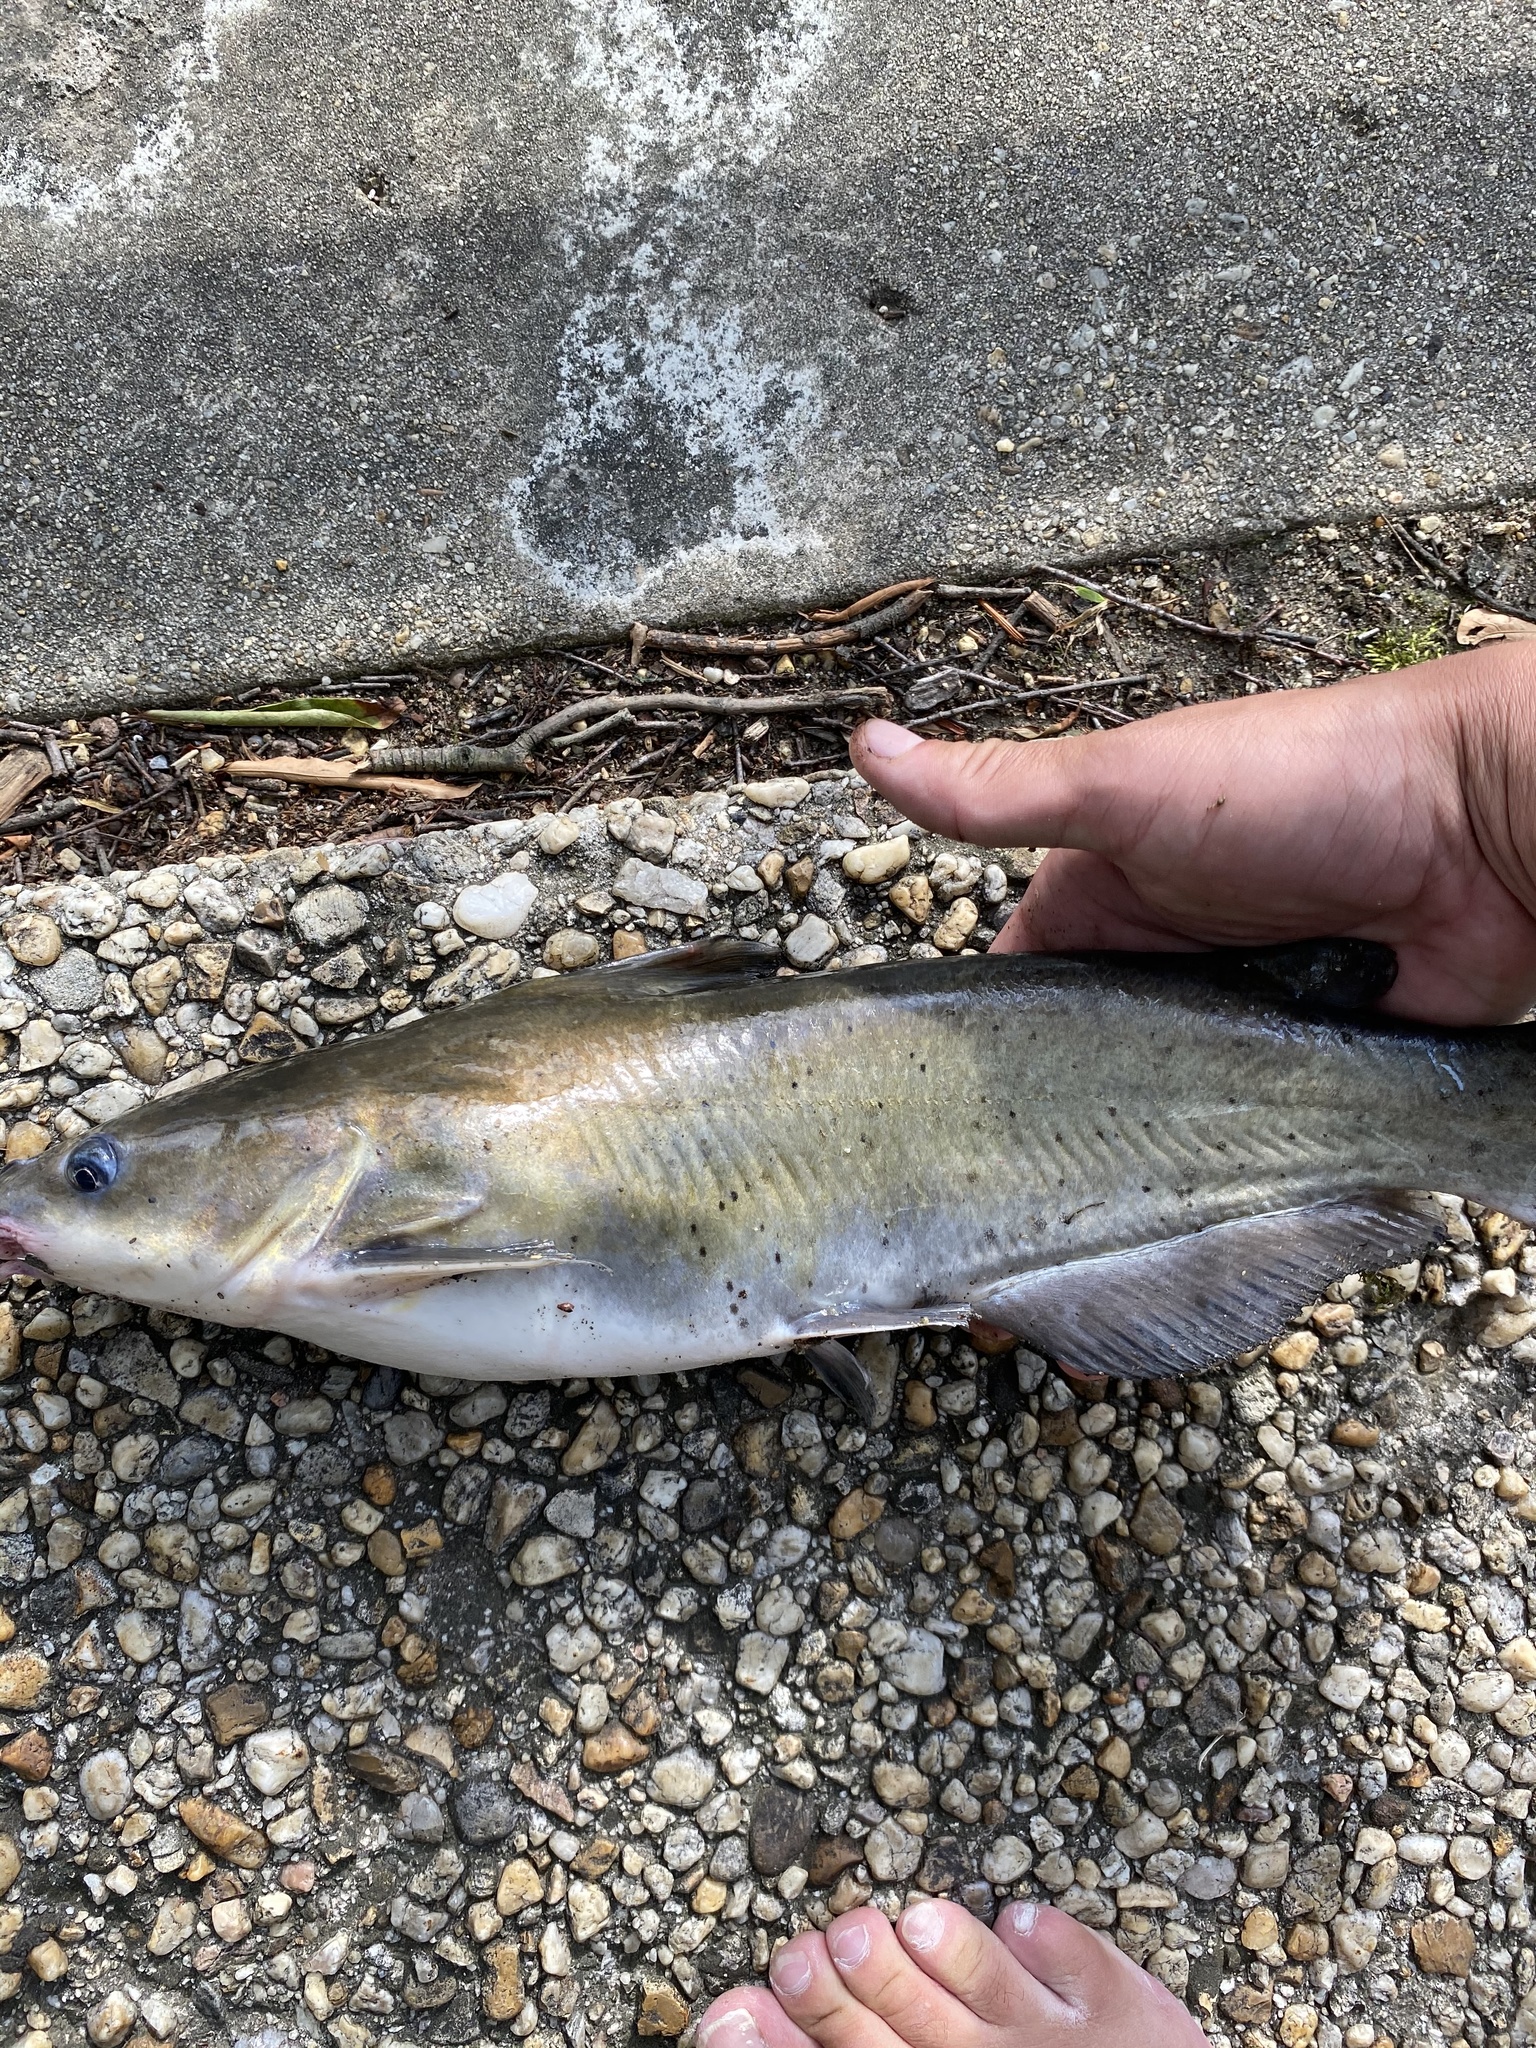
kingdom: Animalia
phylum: Chordata
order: Siluriformes
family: Ictaluridae
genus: Ictalurus
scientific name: Ictalurus punctatus
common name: Channel catfish
